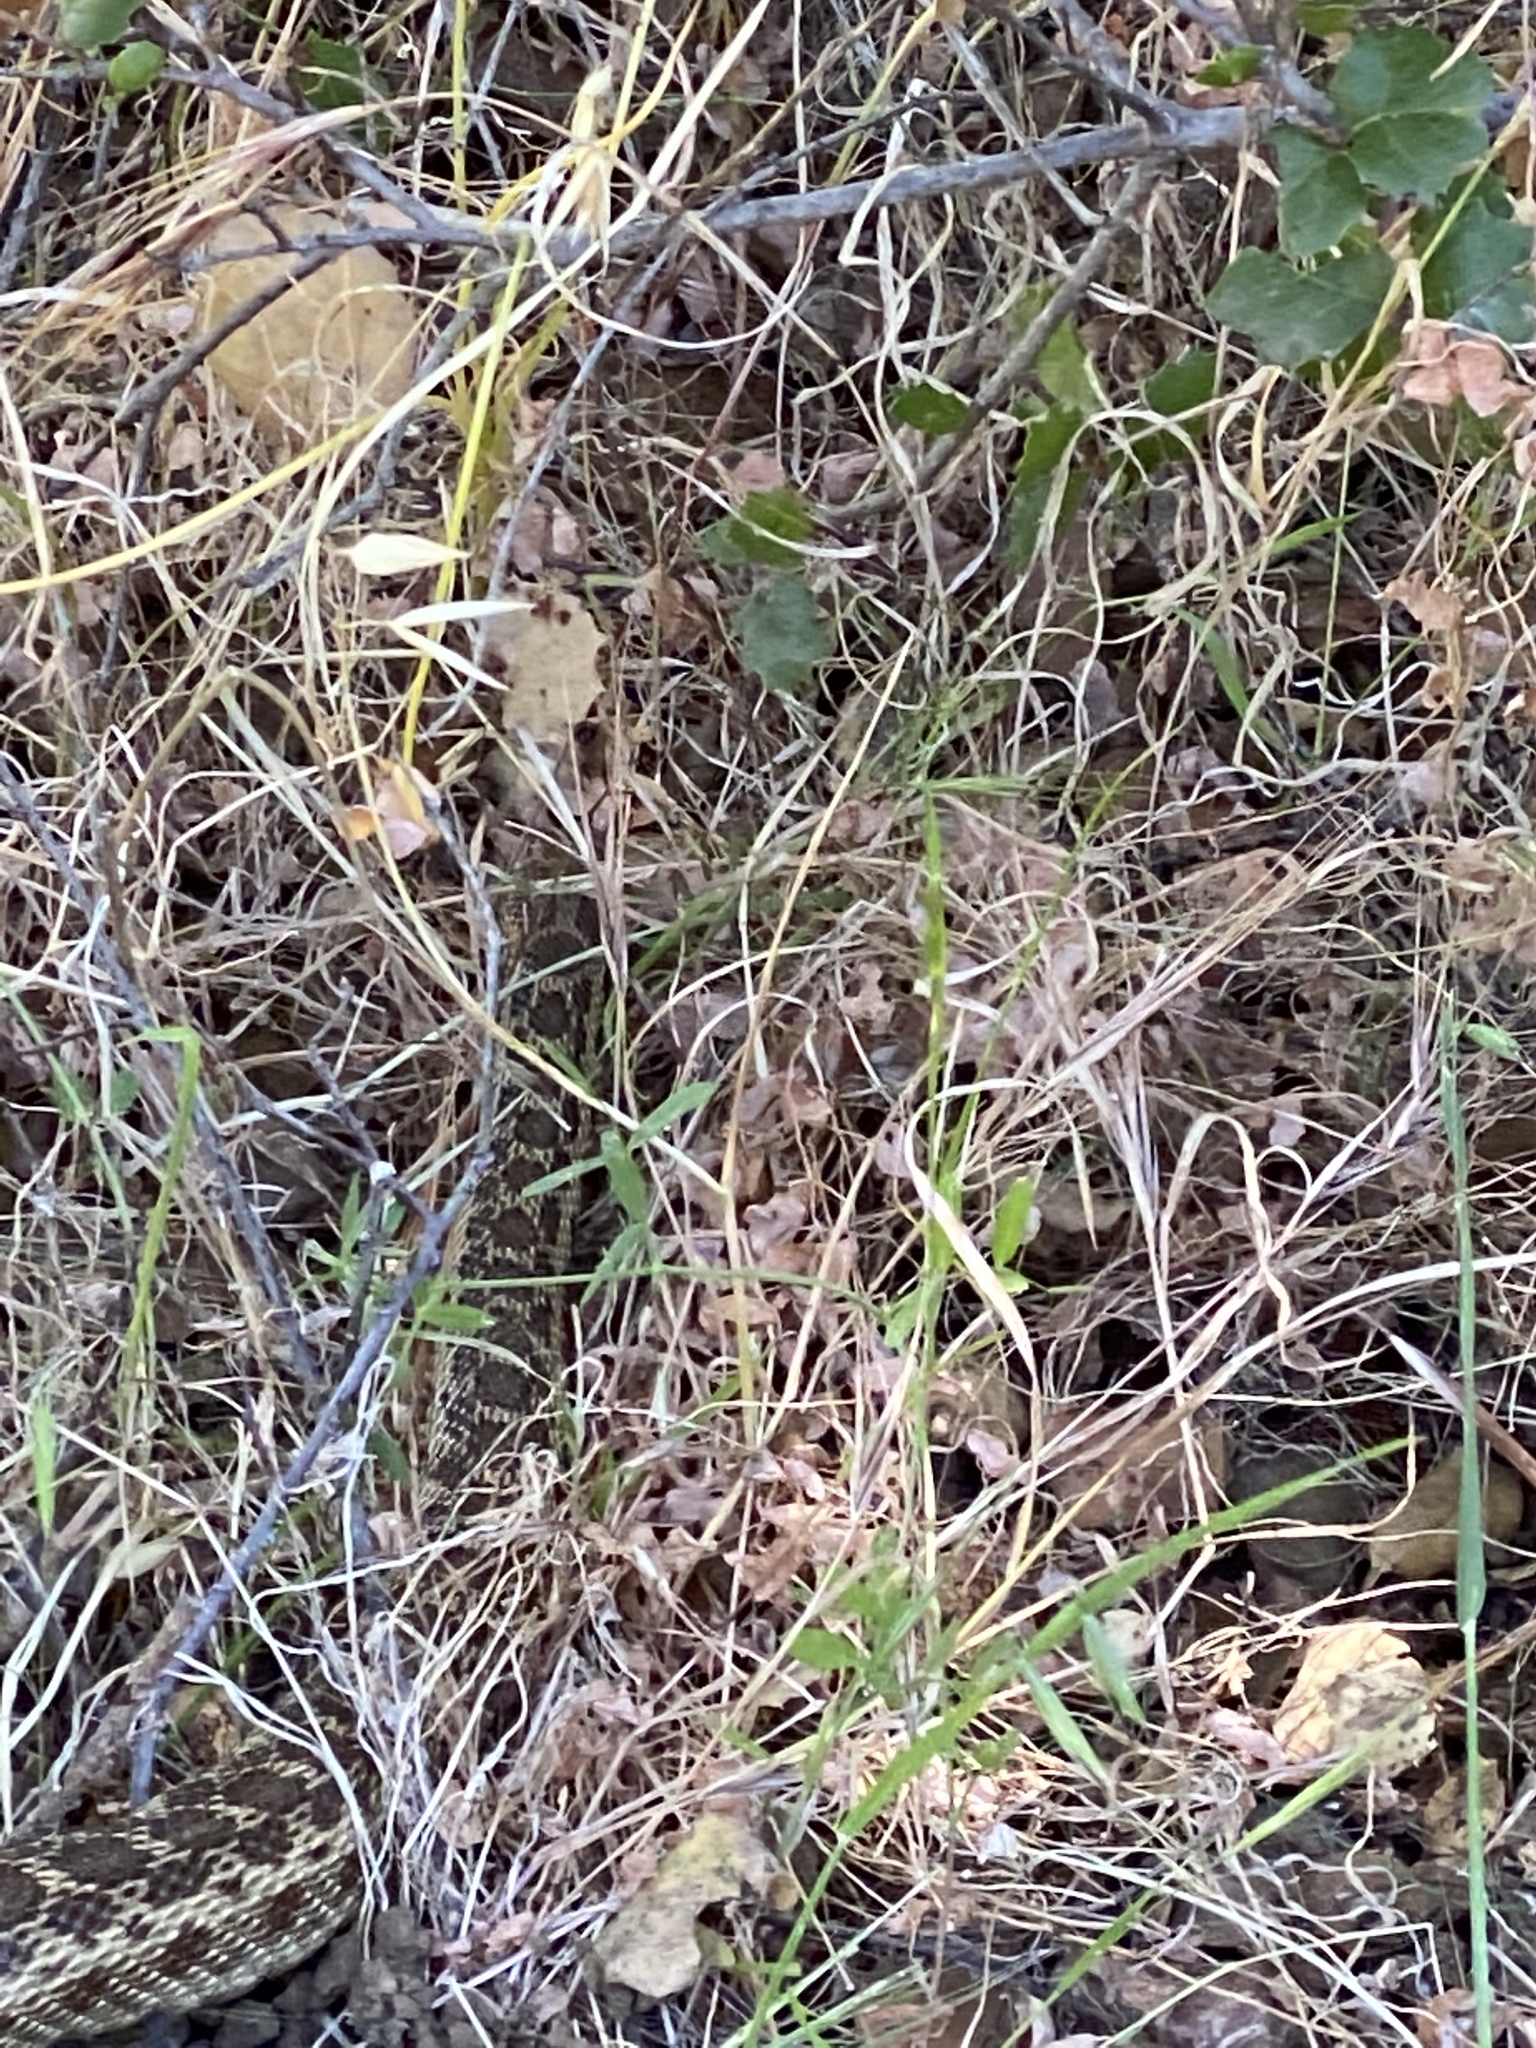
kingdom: Animalia
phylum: Chordata
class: Squamata
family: Colubridae
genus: Pituophis
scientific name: Pituophis catenifer
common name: Gopher snake
